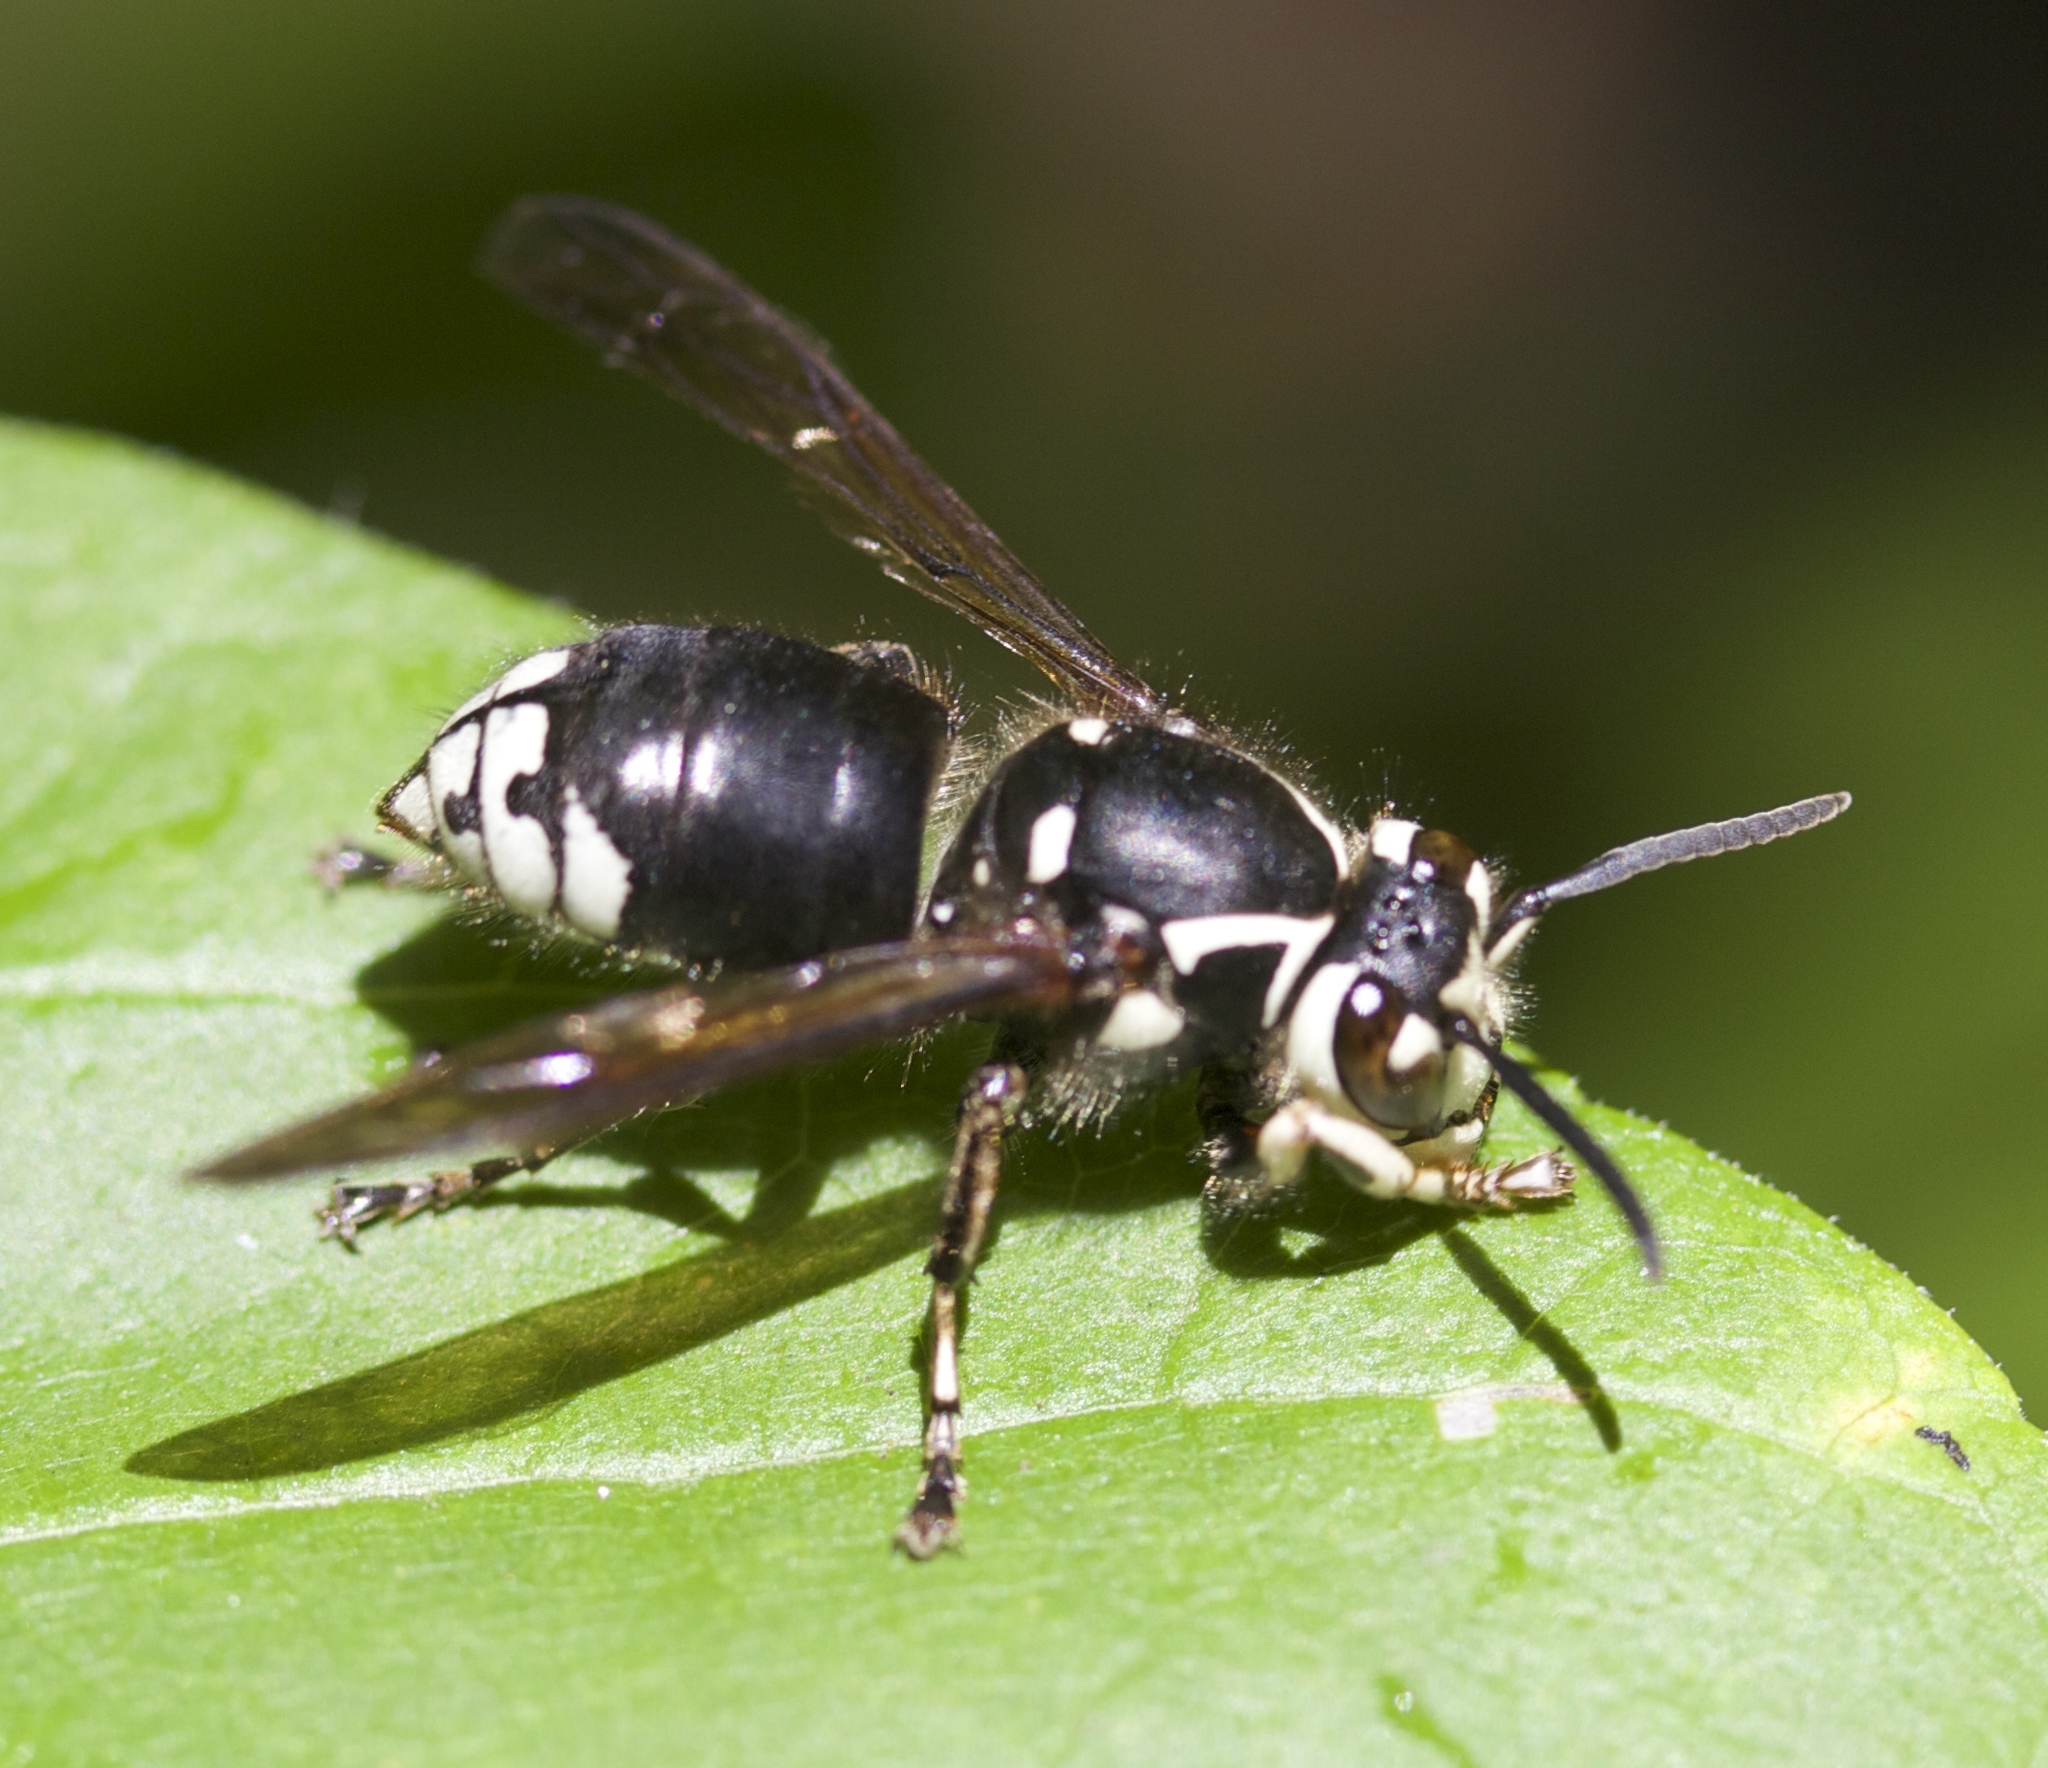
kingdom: Animalia
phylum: Arthropoda
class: Insecta
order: Hymenoptera
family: Vespidae
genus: Dolichovespula
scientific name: Dolichovespula maculata
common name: Bald-faced hornet
